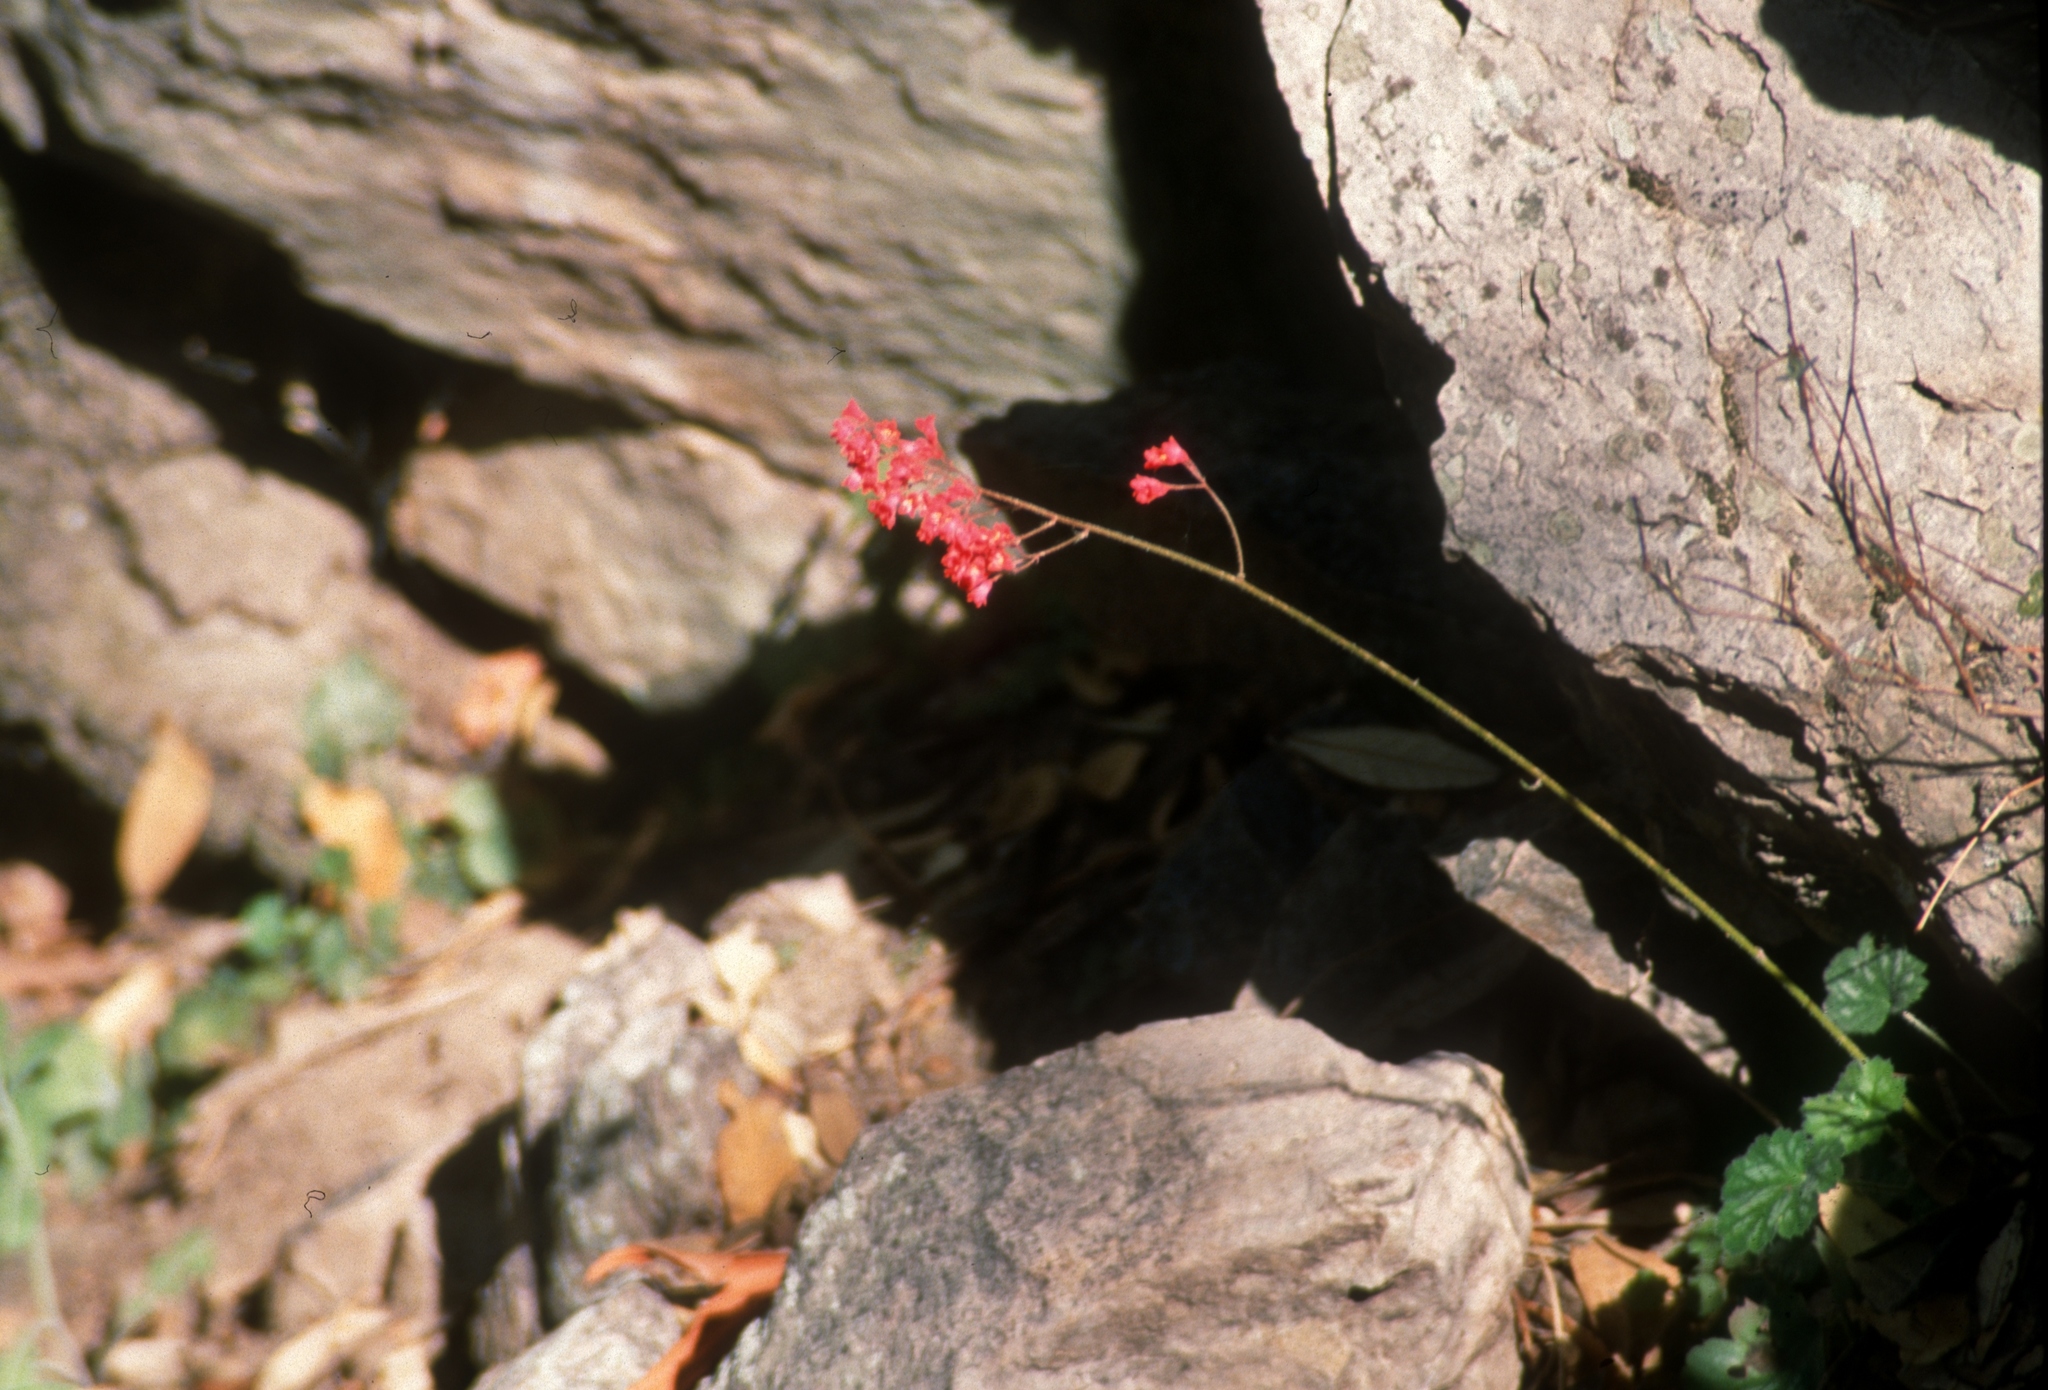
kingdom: Plantae
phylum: Tracheophyta
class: Magnoliopsida
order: Saxifragales
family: Saxifragaceae
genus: Heuchera
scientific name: Heuchera sanguinea
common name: Coralbells
